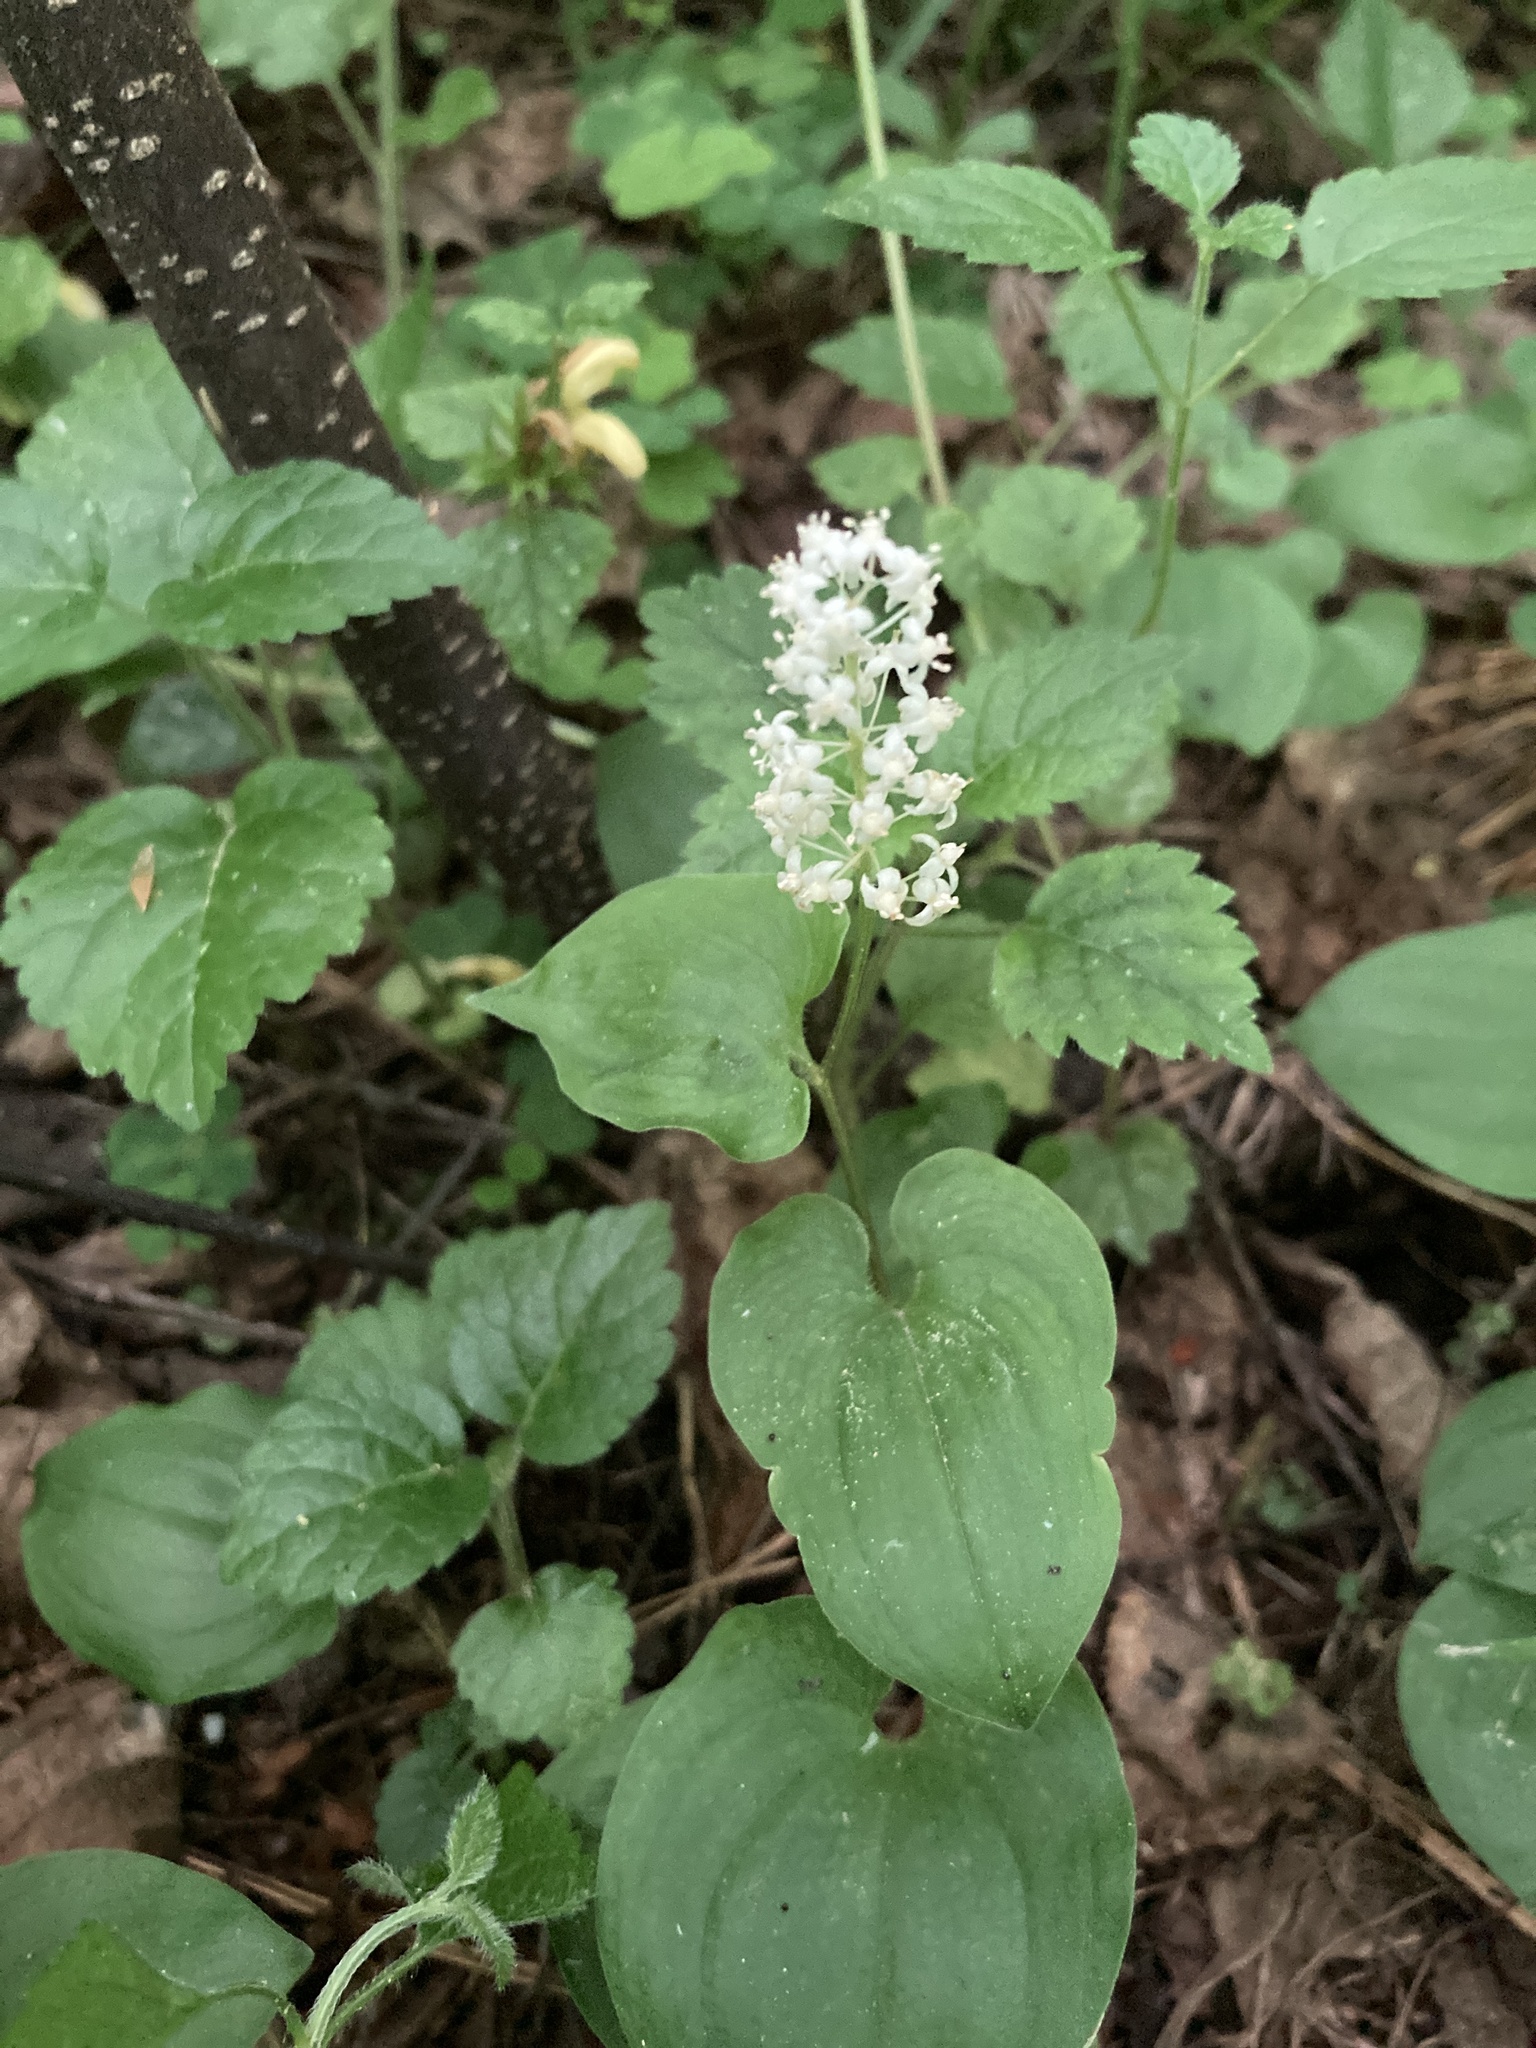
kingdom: Plantae
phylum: Tracheophyta
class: Liliopsida
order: Asparagales
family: Asparagaceae
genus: Maianthemum
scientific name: Maianthemum bifolium
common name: May lily
